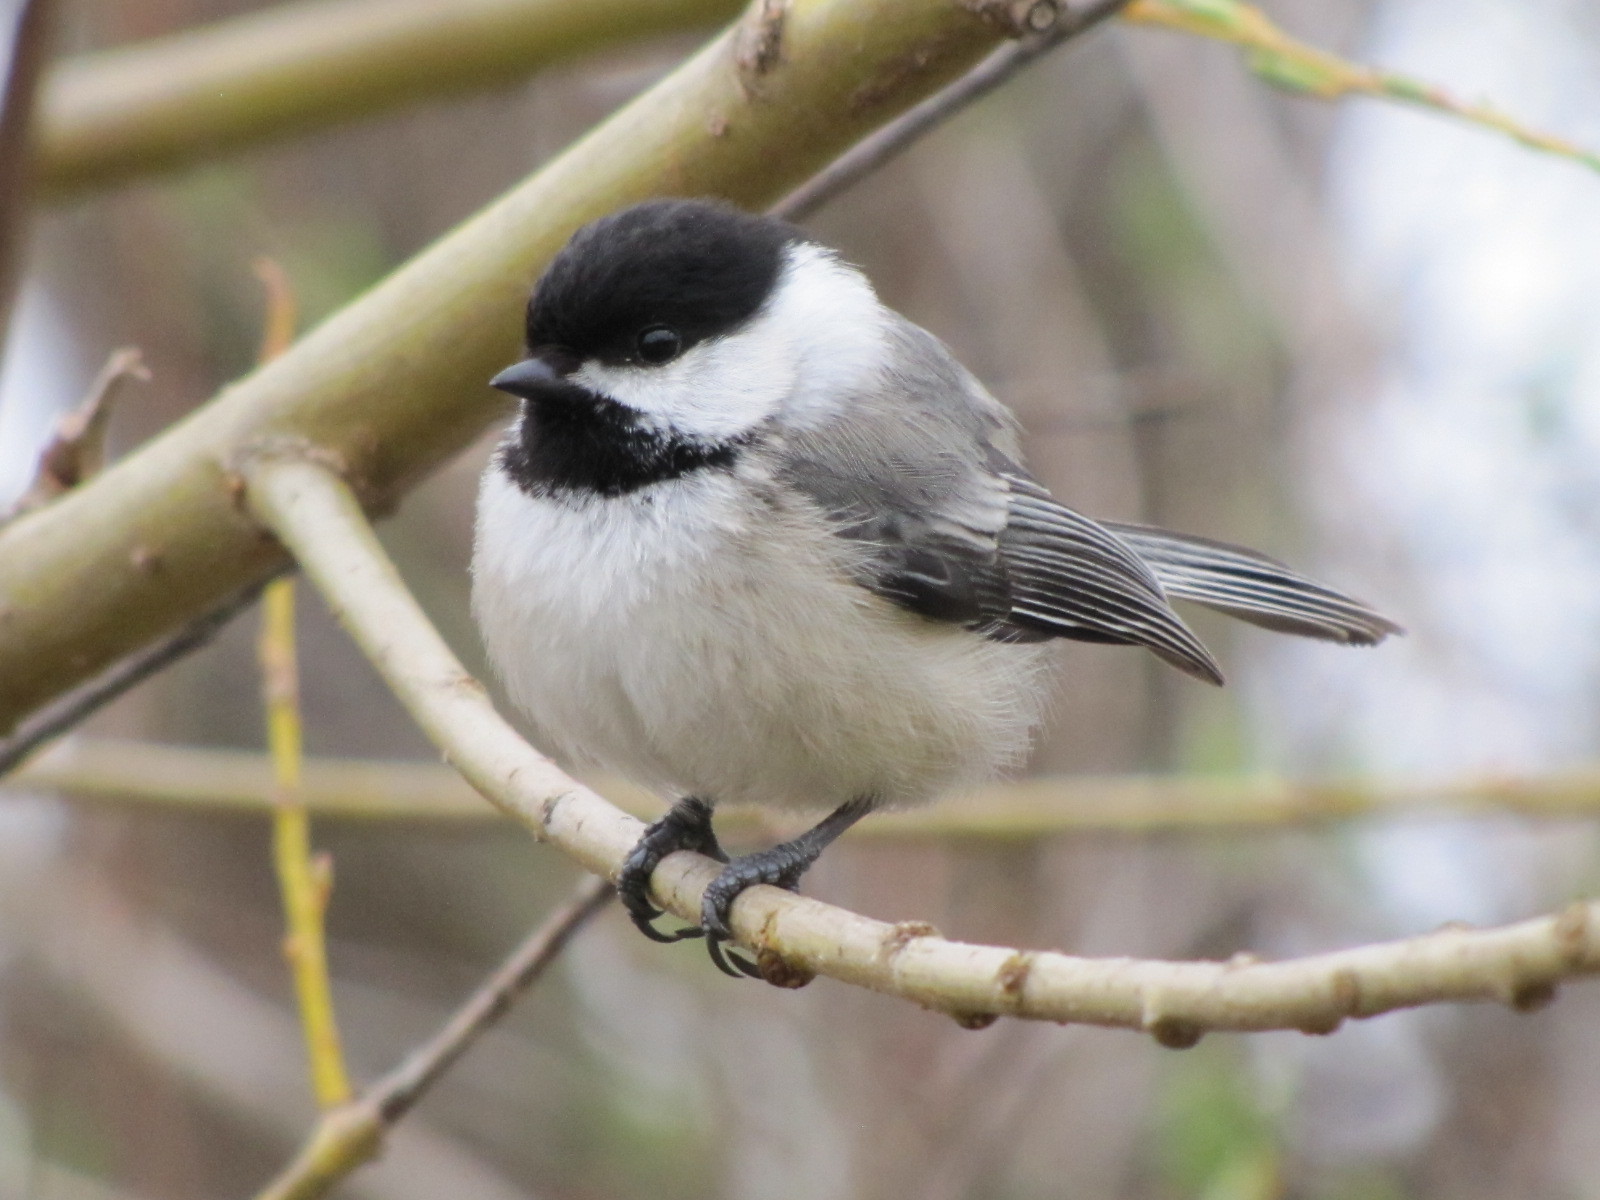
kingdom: Animalia
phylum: Chordata
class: Aves
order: Passeriformes
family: Paridae
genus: Poecile
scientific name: Poecile atricapillus
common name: Black-capped chickadee
